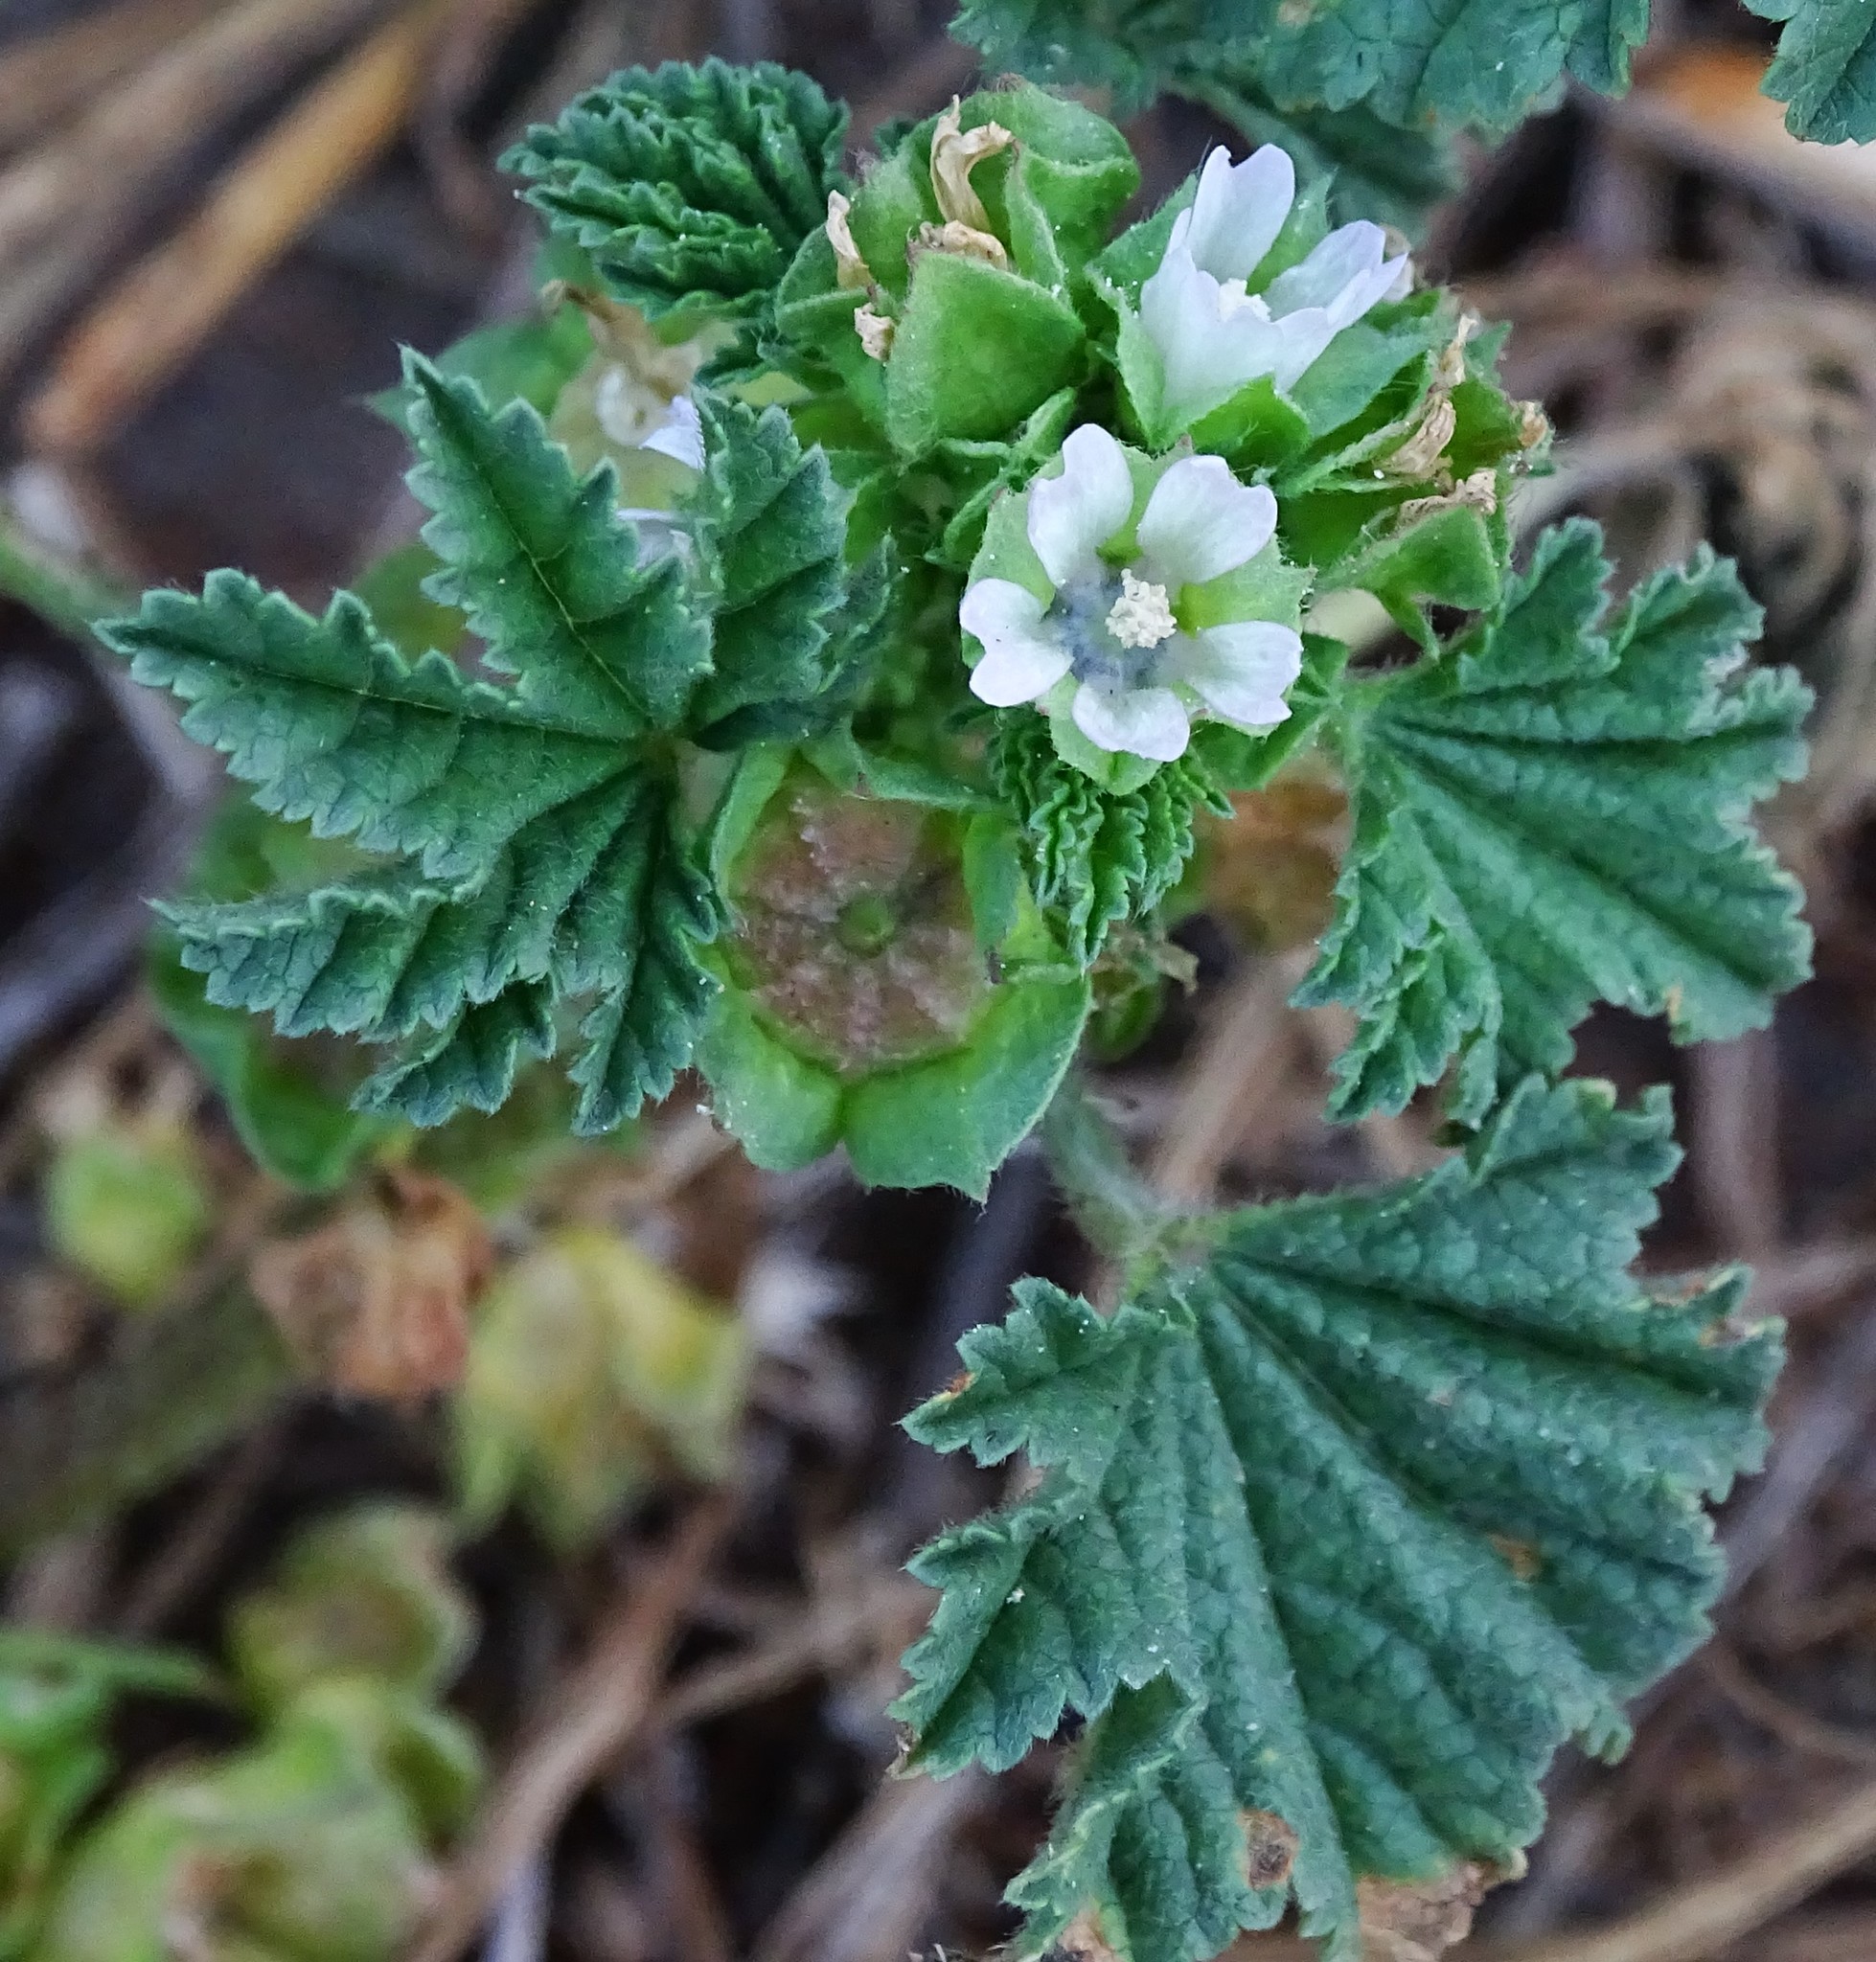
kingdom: Plantae
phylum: Tracheophyta
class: Magnoliopsida
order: Malvales
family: Malvaceae
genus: Malva
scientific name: Malva parviflora
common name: Least mallow
